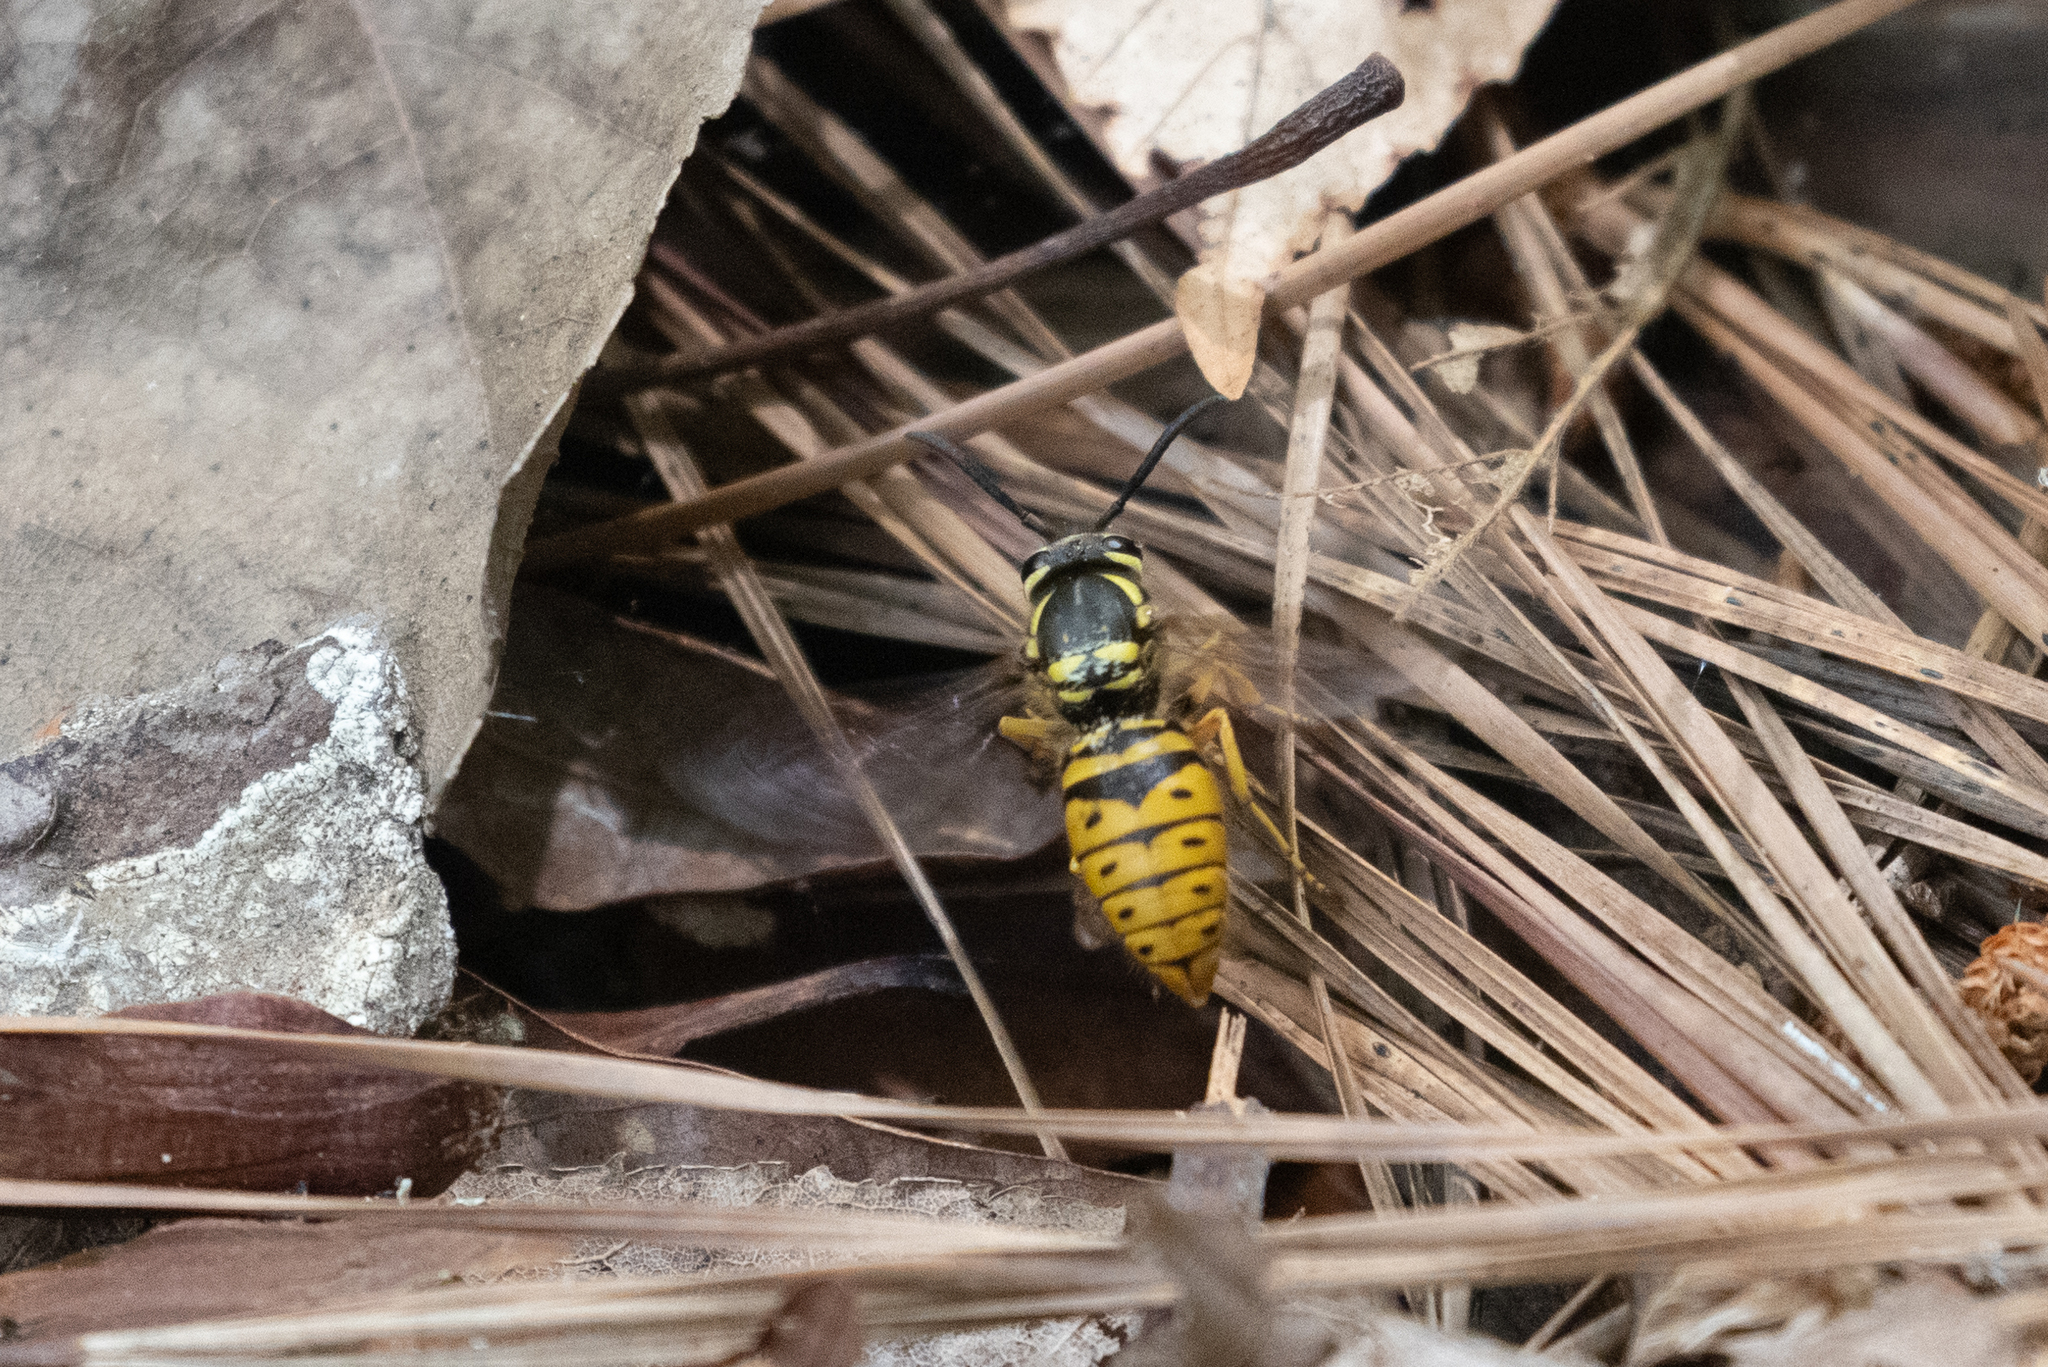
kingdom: Animalia
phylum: Arthropoda
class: Insecta
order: Hymenoptera
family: Vespidae
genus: Vespula
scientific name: Vespula maculifrons
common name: Eastern yellowjacket
